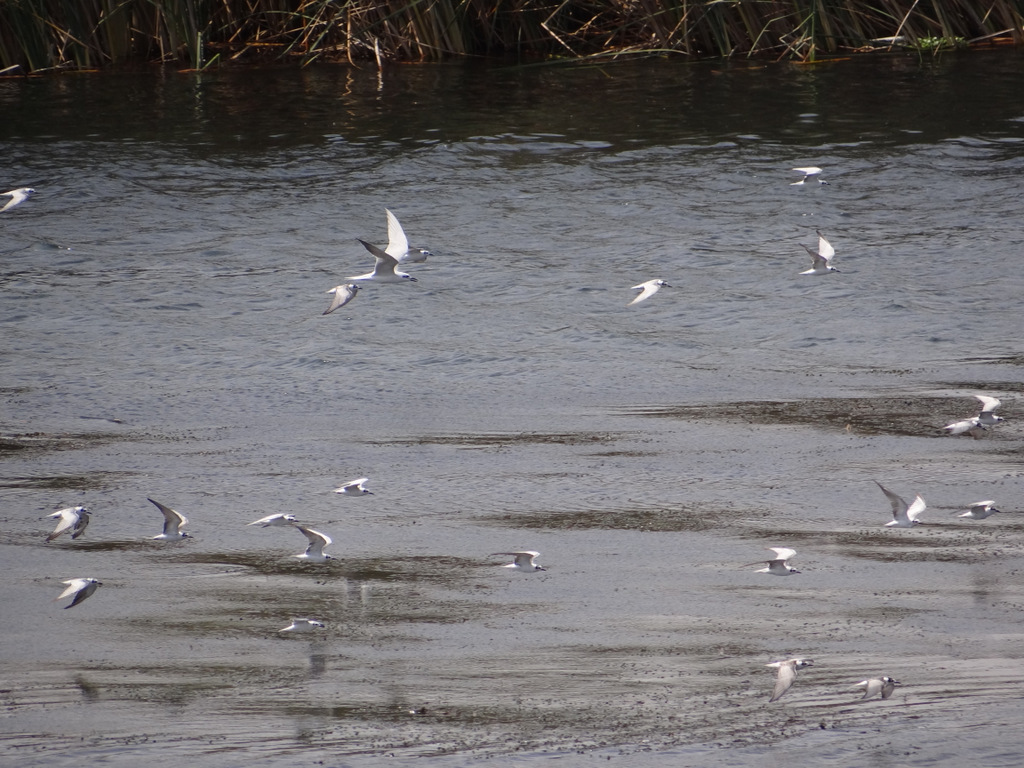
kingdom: Animalia
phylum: Chordata
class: Aves
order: Charadriiformes
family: Laridae
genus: Gelochelidon
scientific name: Gelochelidon nilotica
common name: Gull-billed tern
